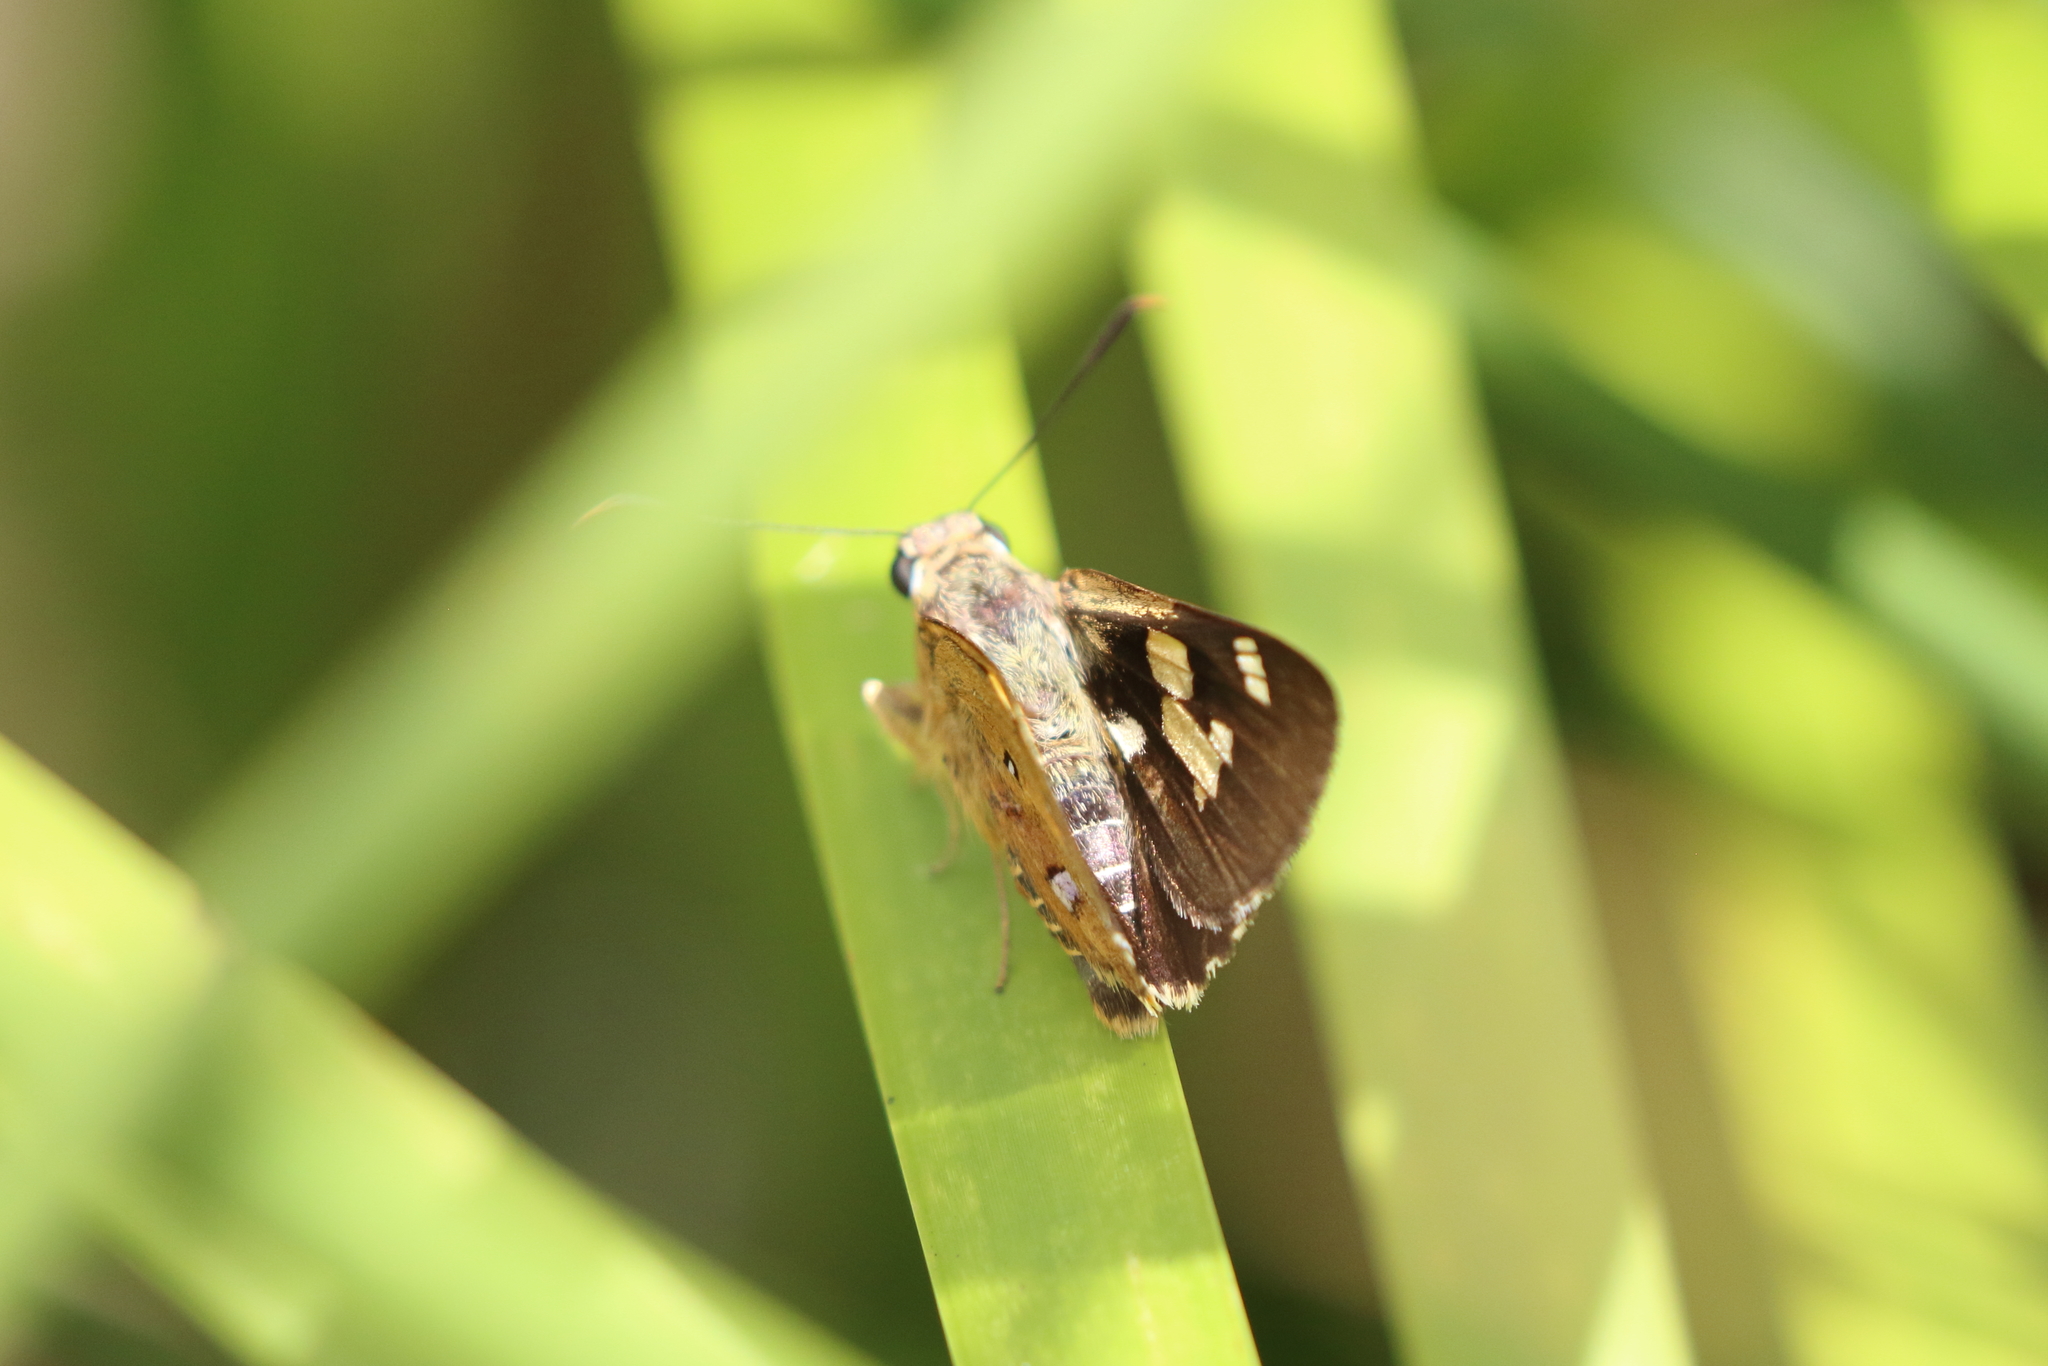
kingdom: Animalia
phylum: Arthropoda
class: Insecta
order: Lepidoptera
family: Hesperiidae
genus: Trapezites
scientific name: Trapezites symmomus
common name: Splendid ochre
